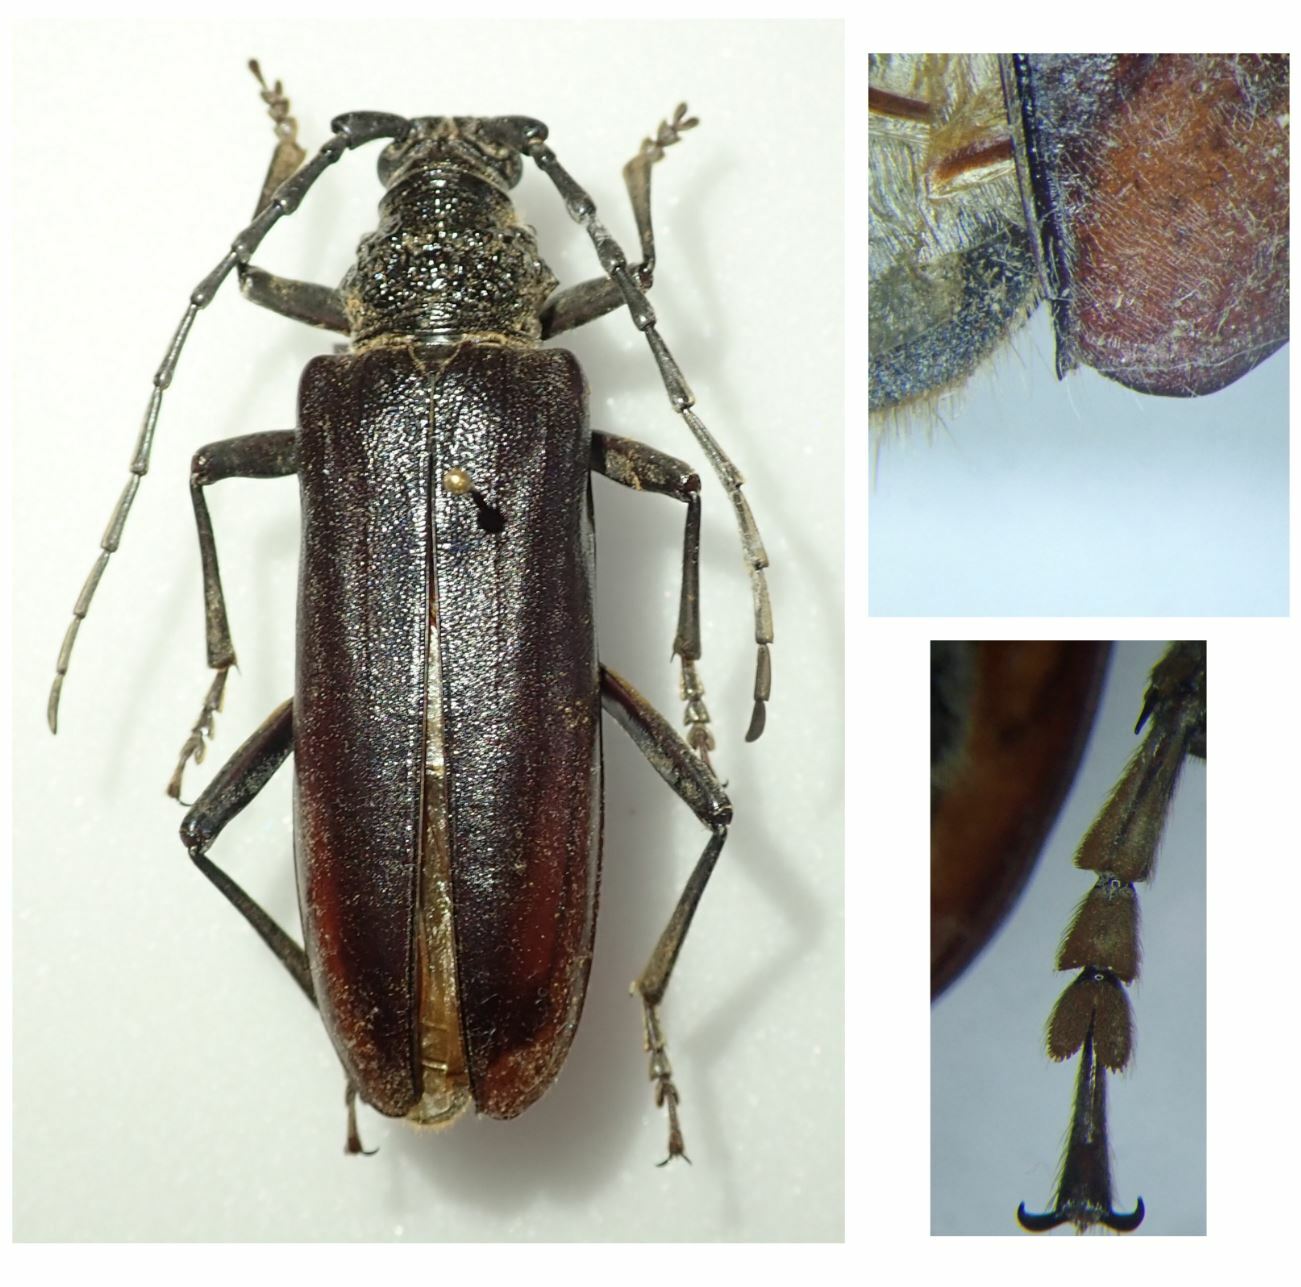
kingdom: Animalia
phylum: Arthropoda
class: Insecta
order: Coleoptera
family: Cerambycidae
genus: Cerambyx
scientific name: Cerambyx welensii
